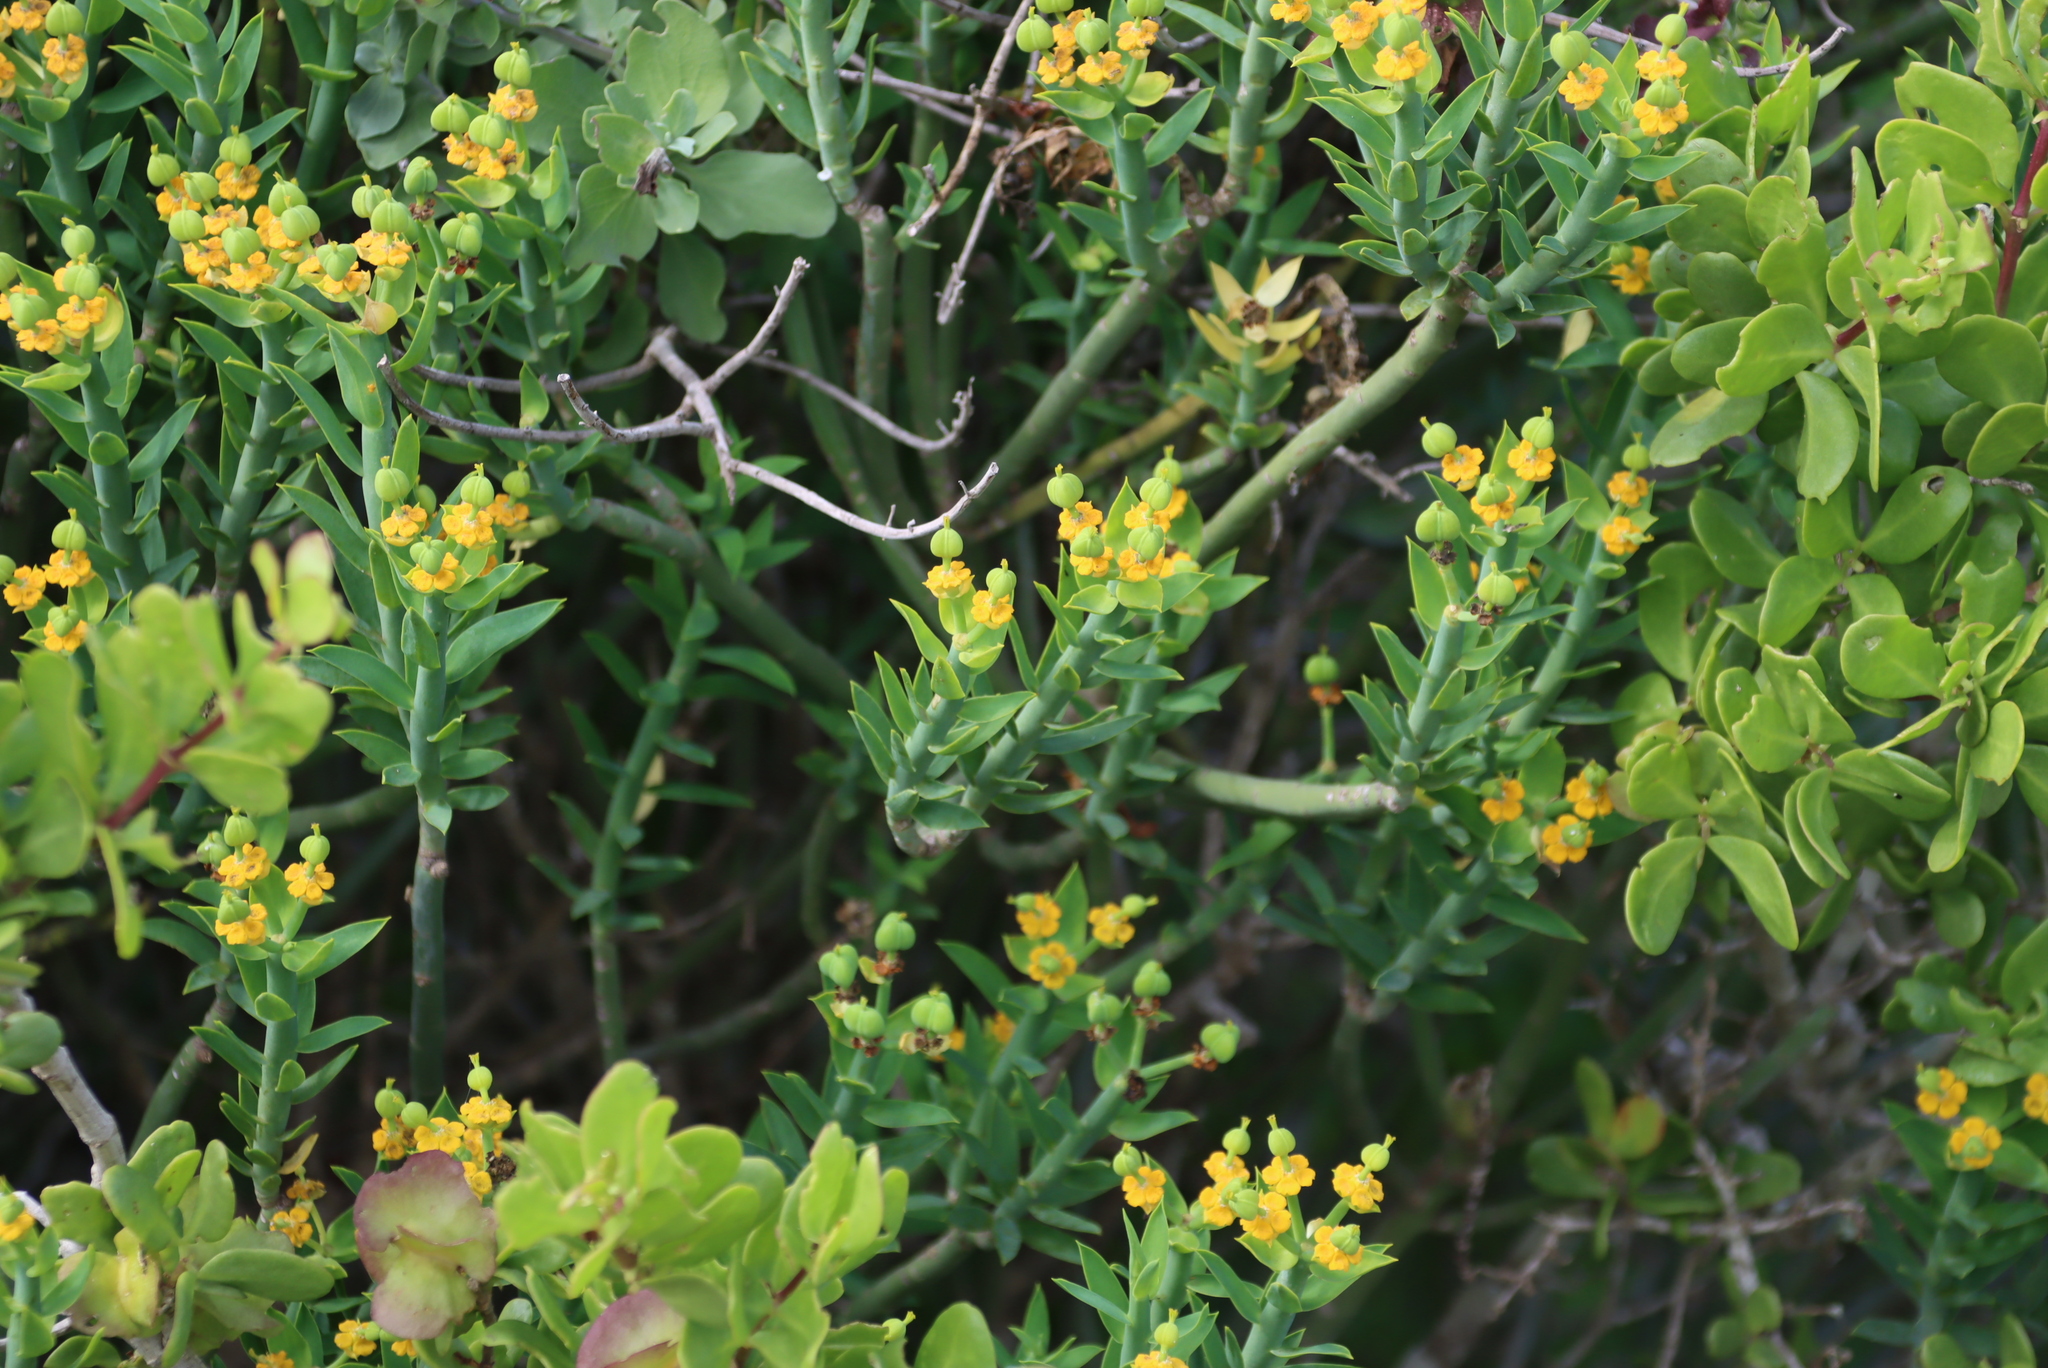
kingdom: Plantae
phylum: Tracheophyta
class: Magnoliopsida
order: Malpighiales
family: Euphorbiaceae
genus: Euphorbia
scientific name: Euphorbia mauritanica
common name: Jackal's-food
